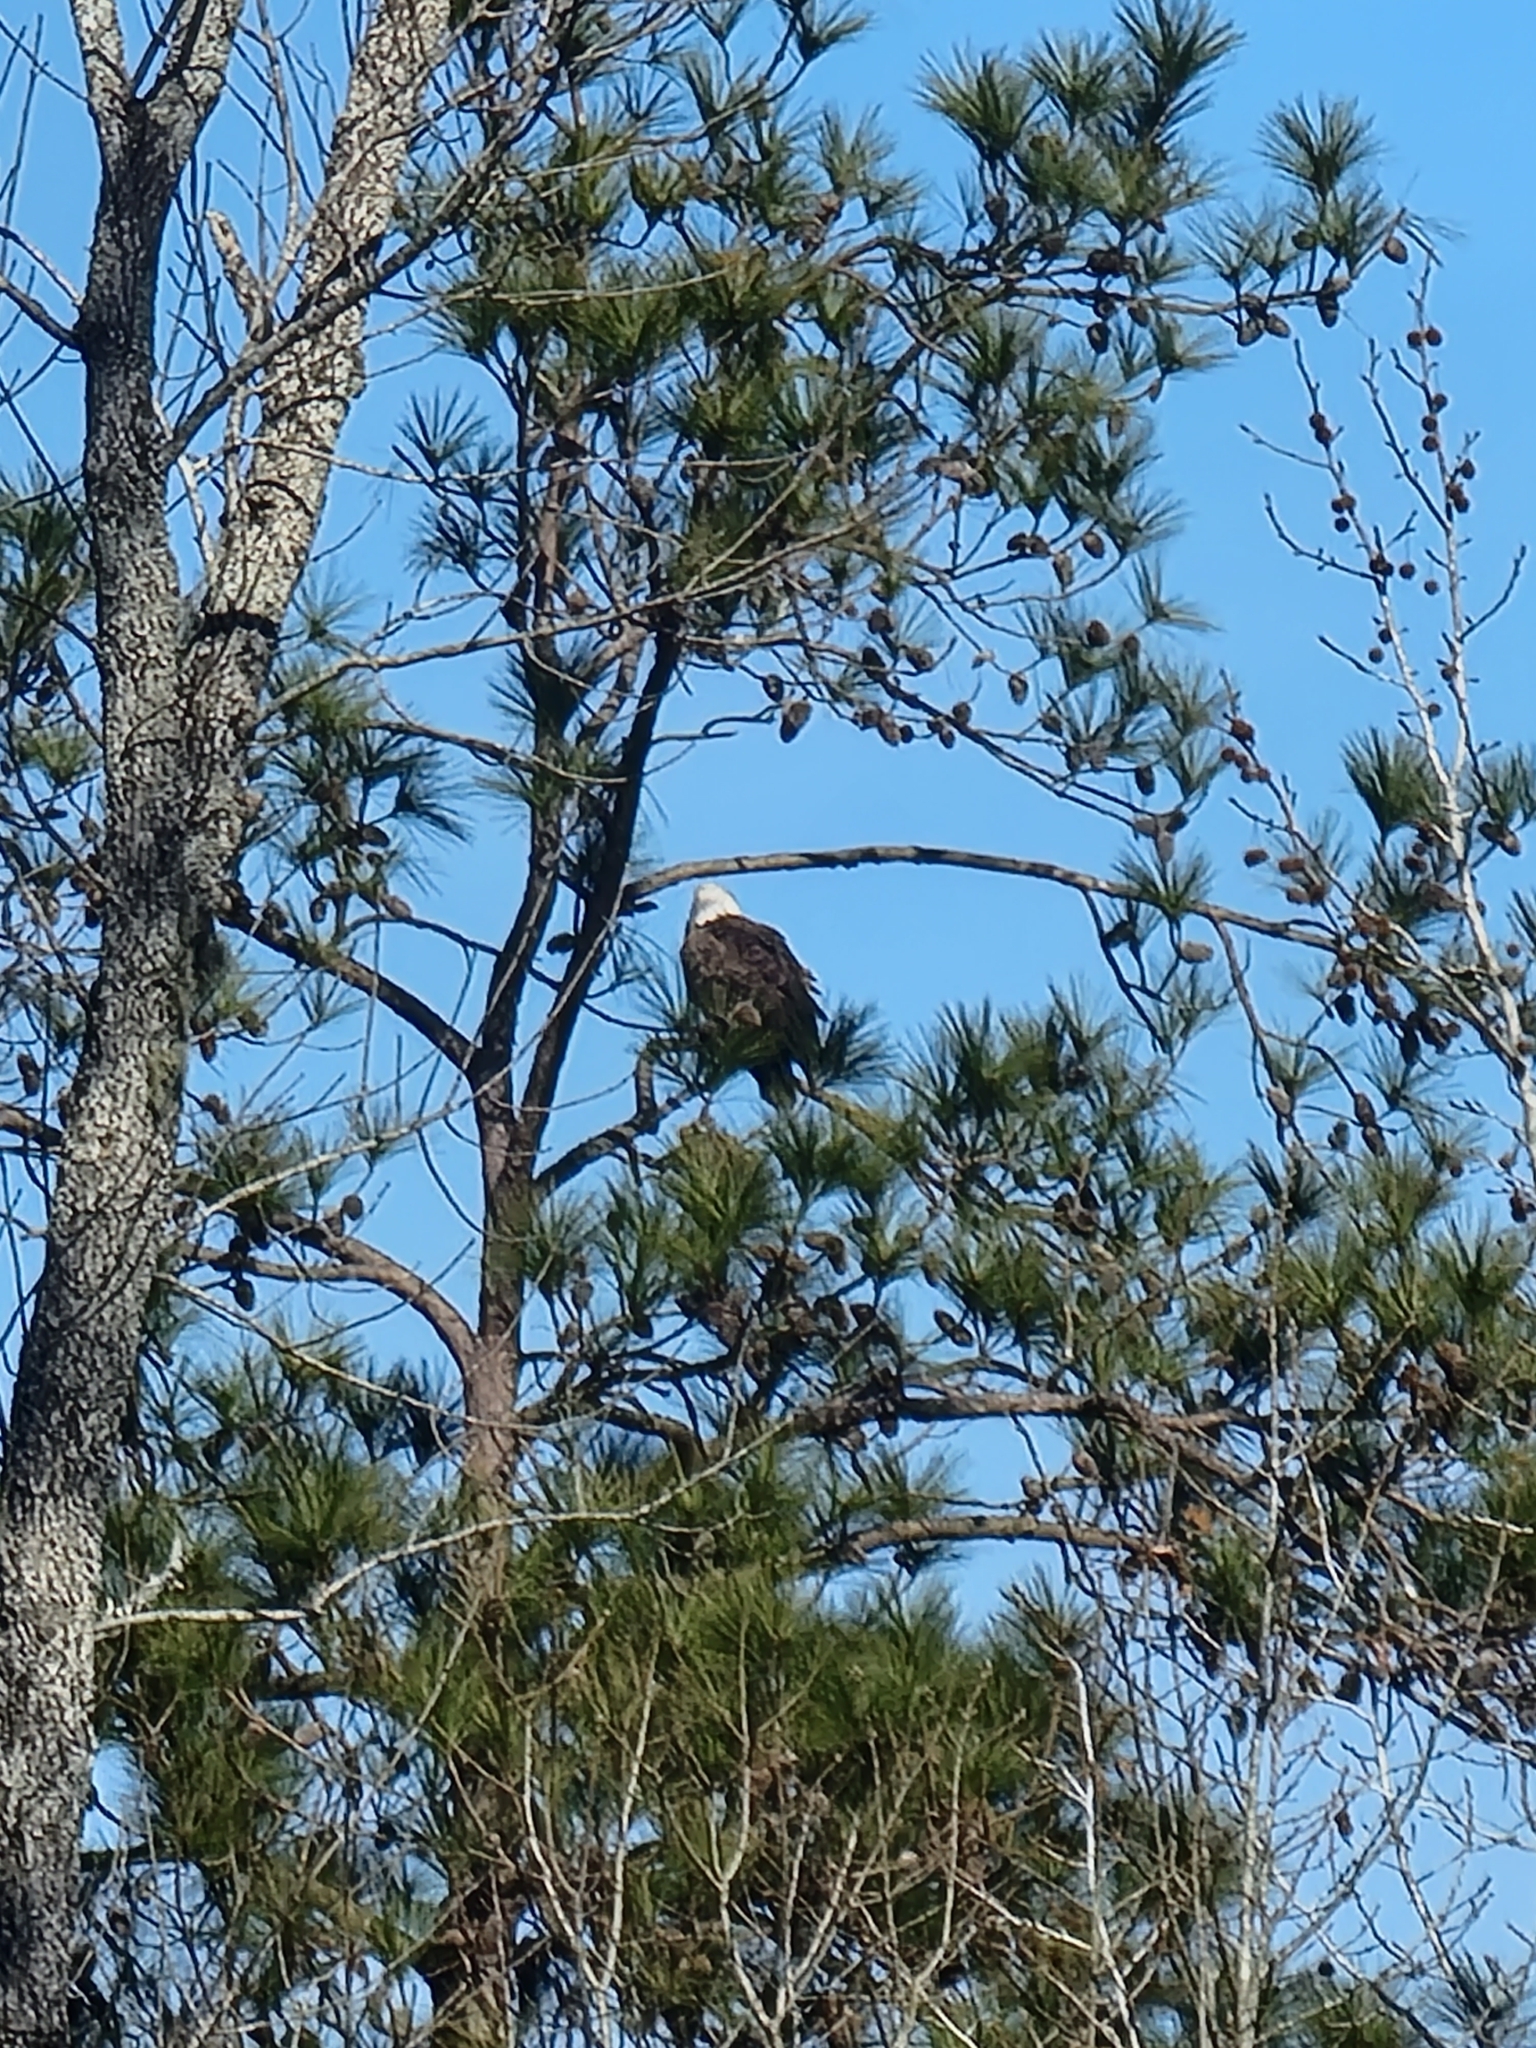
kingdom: Animalia
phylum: Chordata
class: Aves
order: Accipitriformes
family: Accipitridae
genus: Haliaeetus
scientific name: Haliaeetus leucocephalus
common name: Bald eagle
